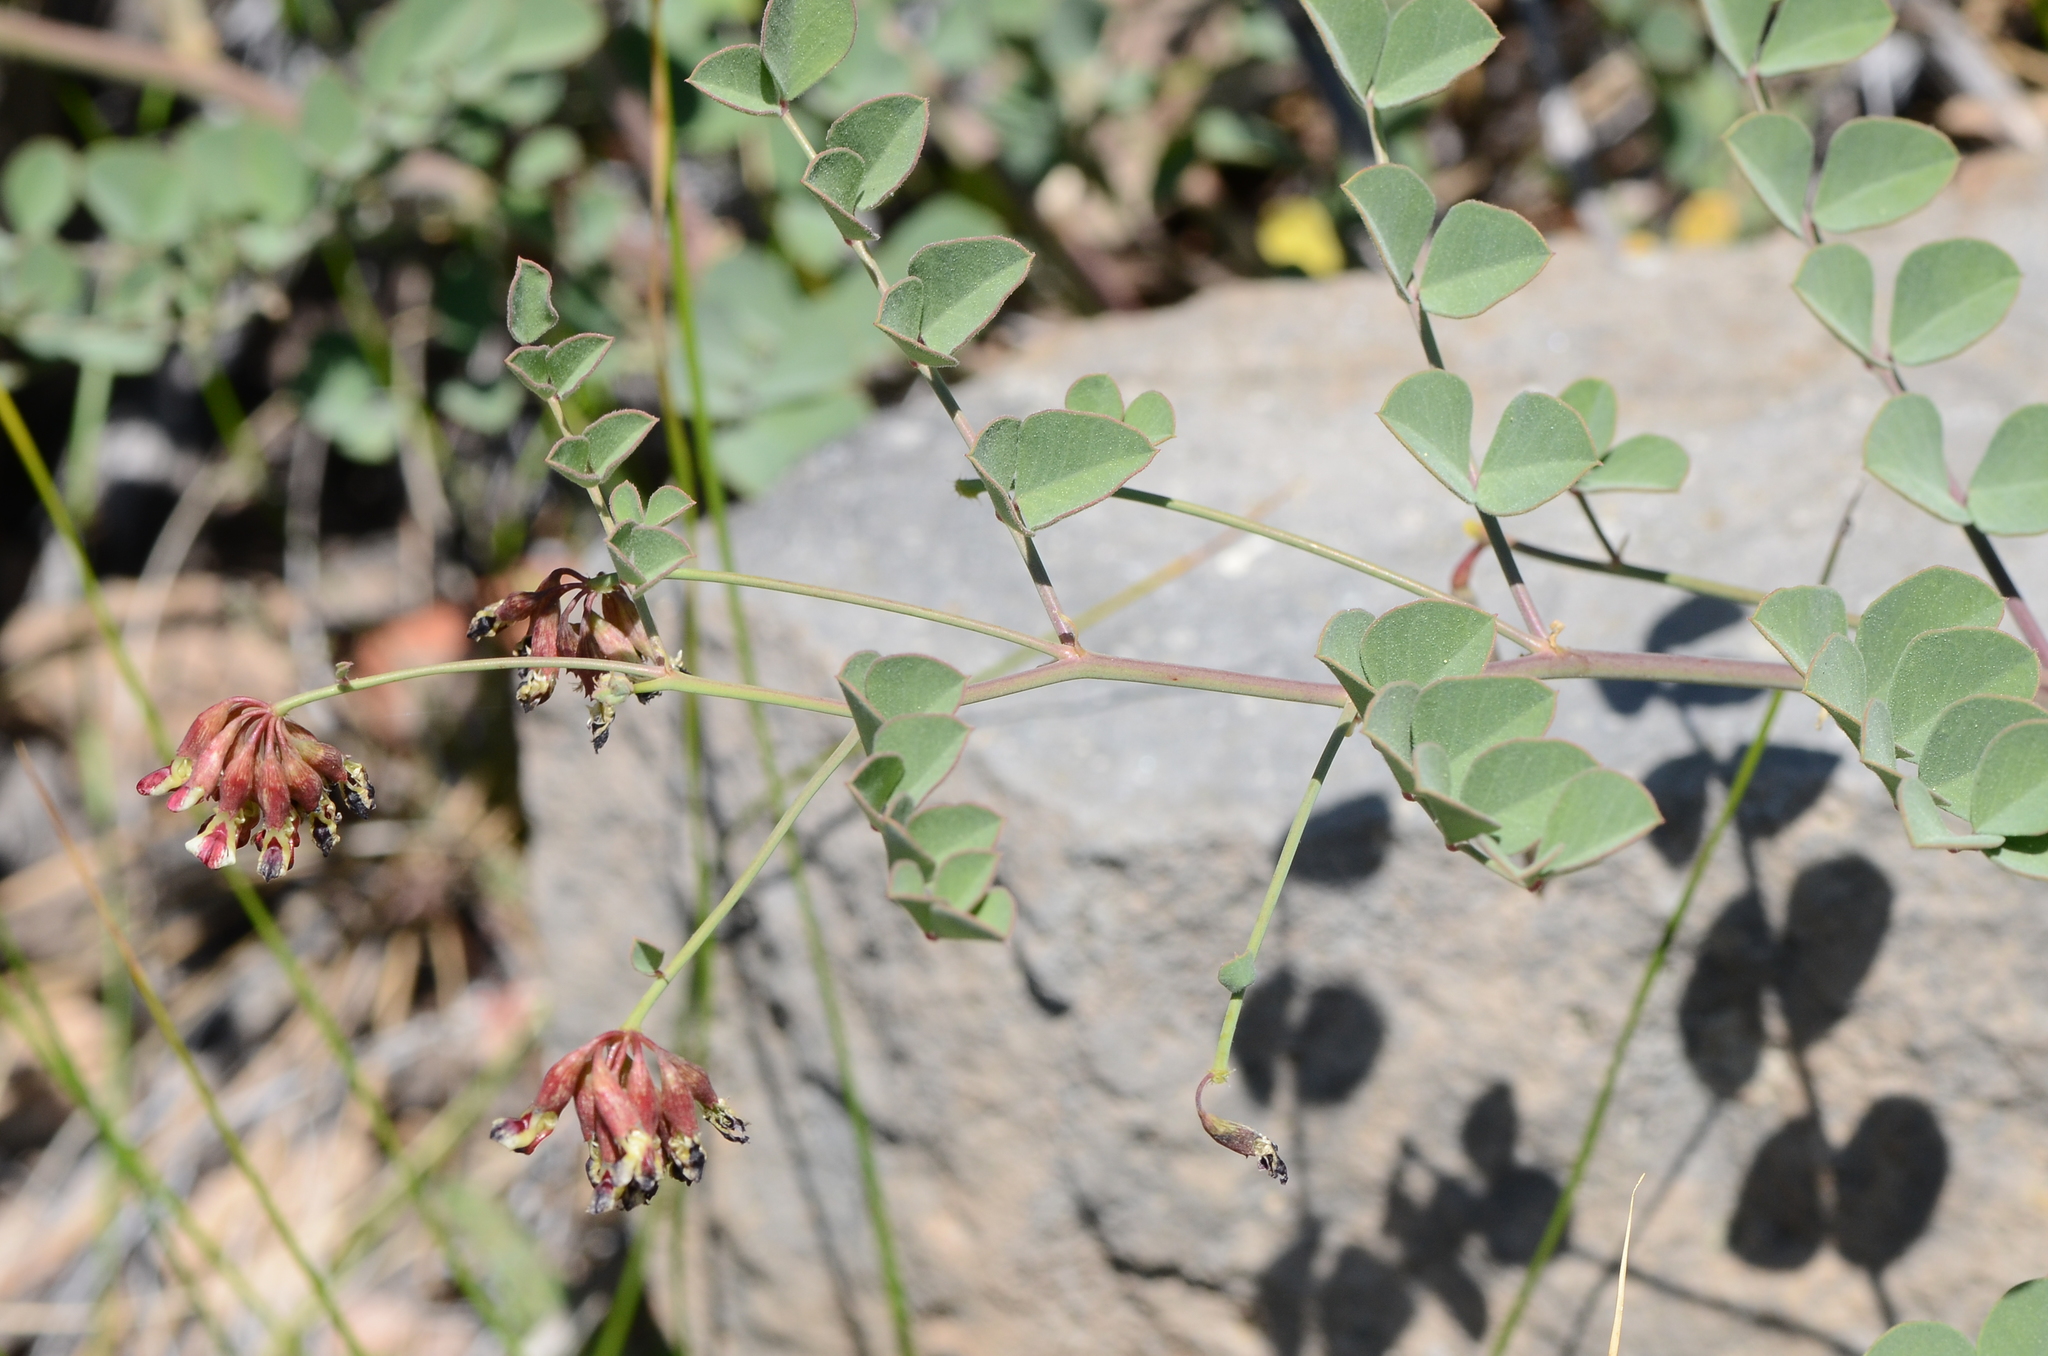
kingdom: Plantae
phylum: Tracheophyta
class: Magnoliopsida
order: Fabales
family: Fabaceae
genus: Hosackia
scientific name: Hosackia crassifolia
